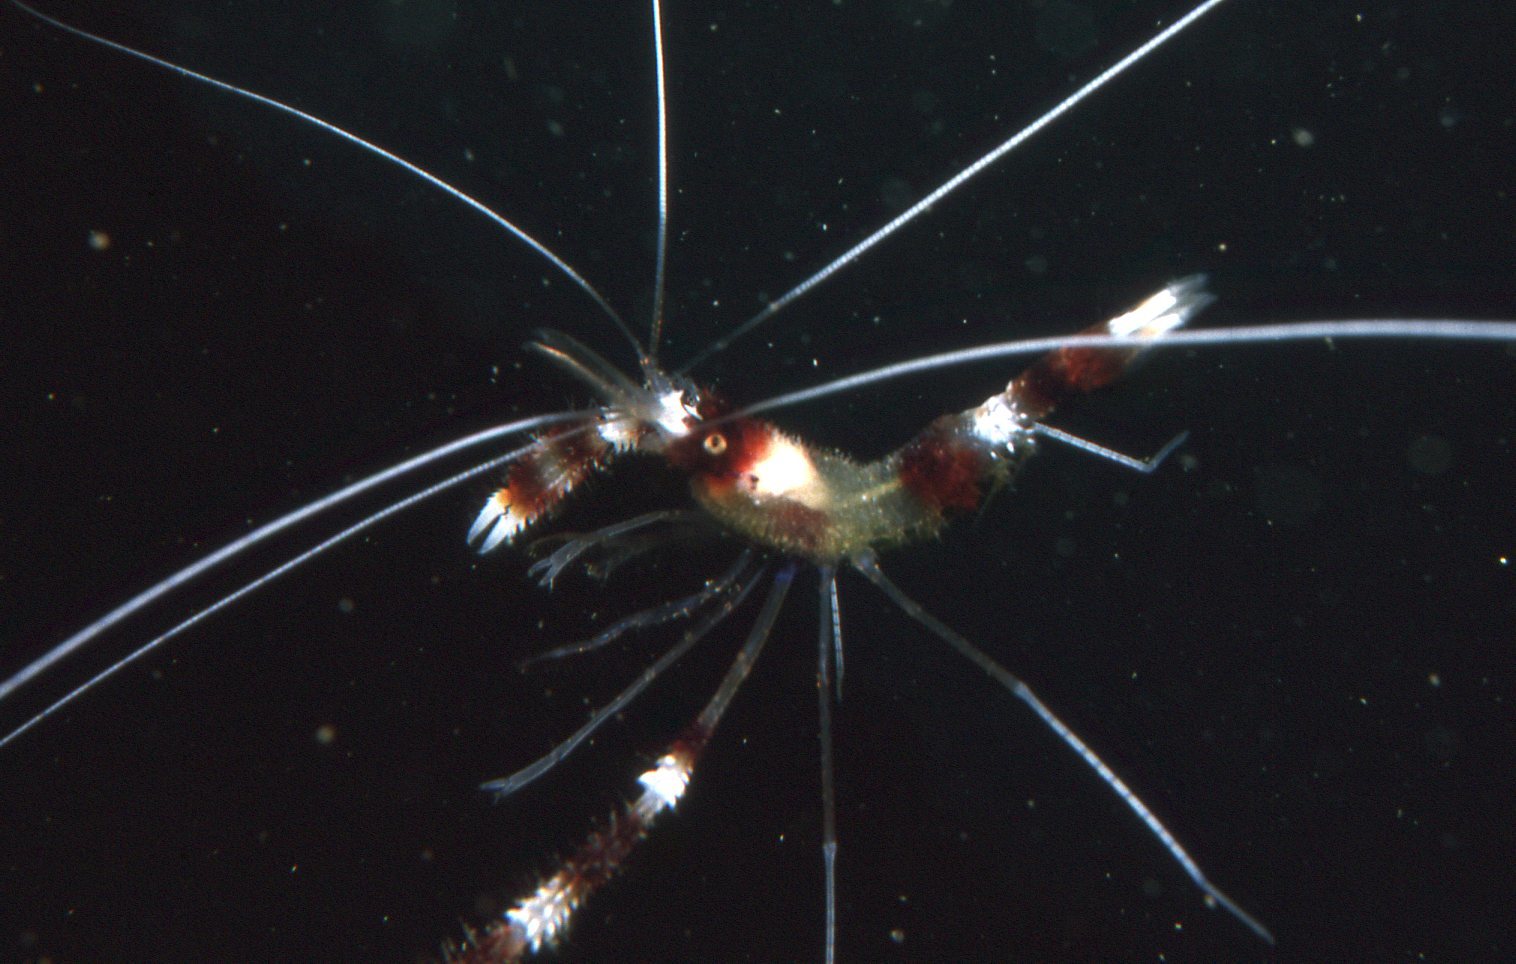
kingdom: Animalia
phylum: Arthropoda
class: Malacostraca
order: Decapoda
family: Stenopodidae
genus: Stenopus
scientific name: Stenopus hispidus
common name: Banded coral shrimp
